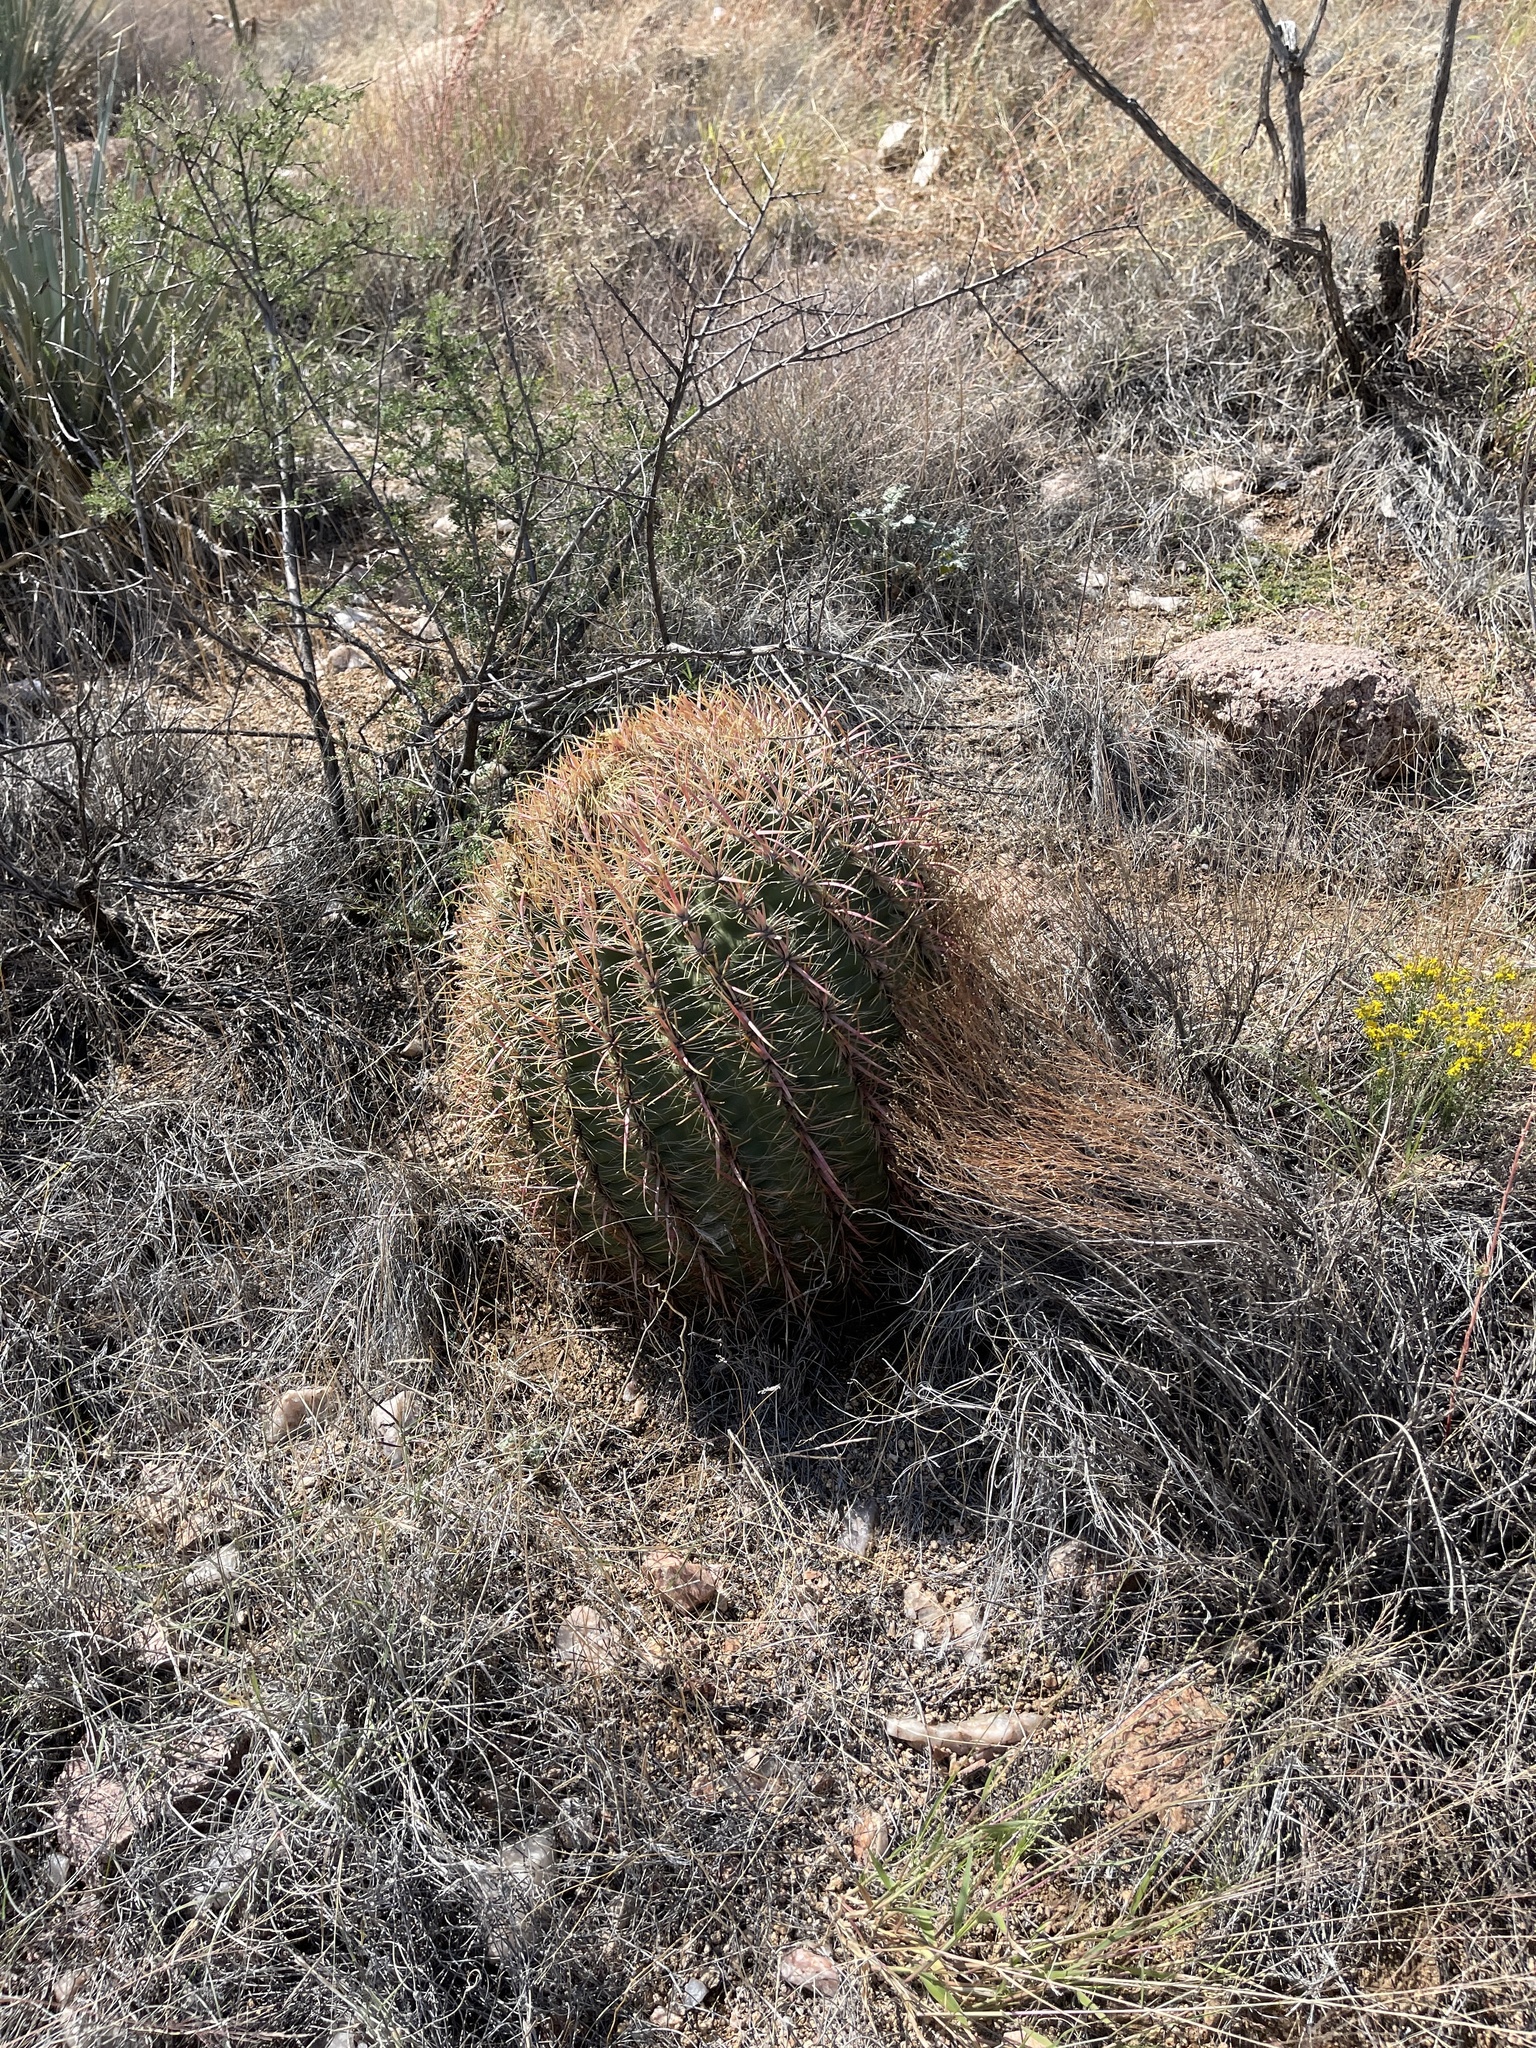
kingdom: Plantae
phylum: Tracheophyta
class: Magnoliopsida
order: Caryophyllales
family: Cactaceae
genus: Ferocactus
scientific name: Ferocactus cylindraceus
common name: California barrel cactus
